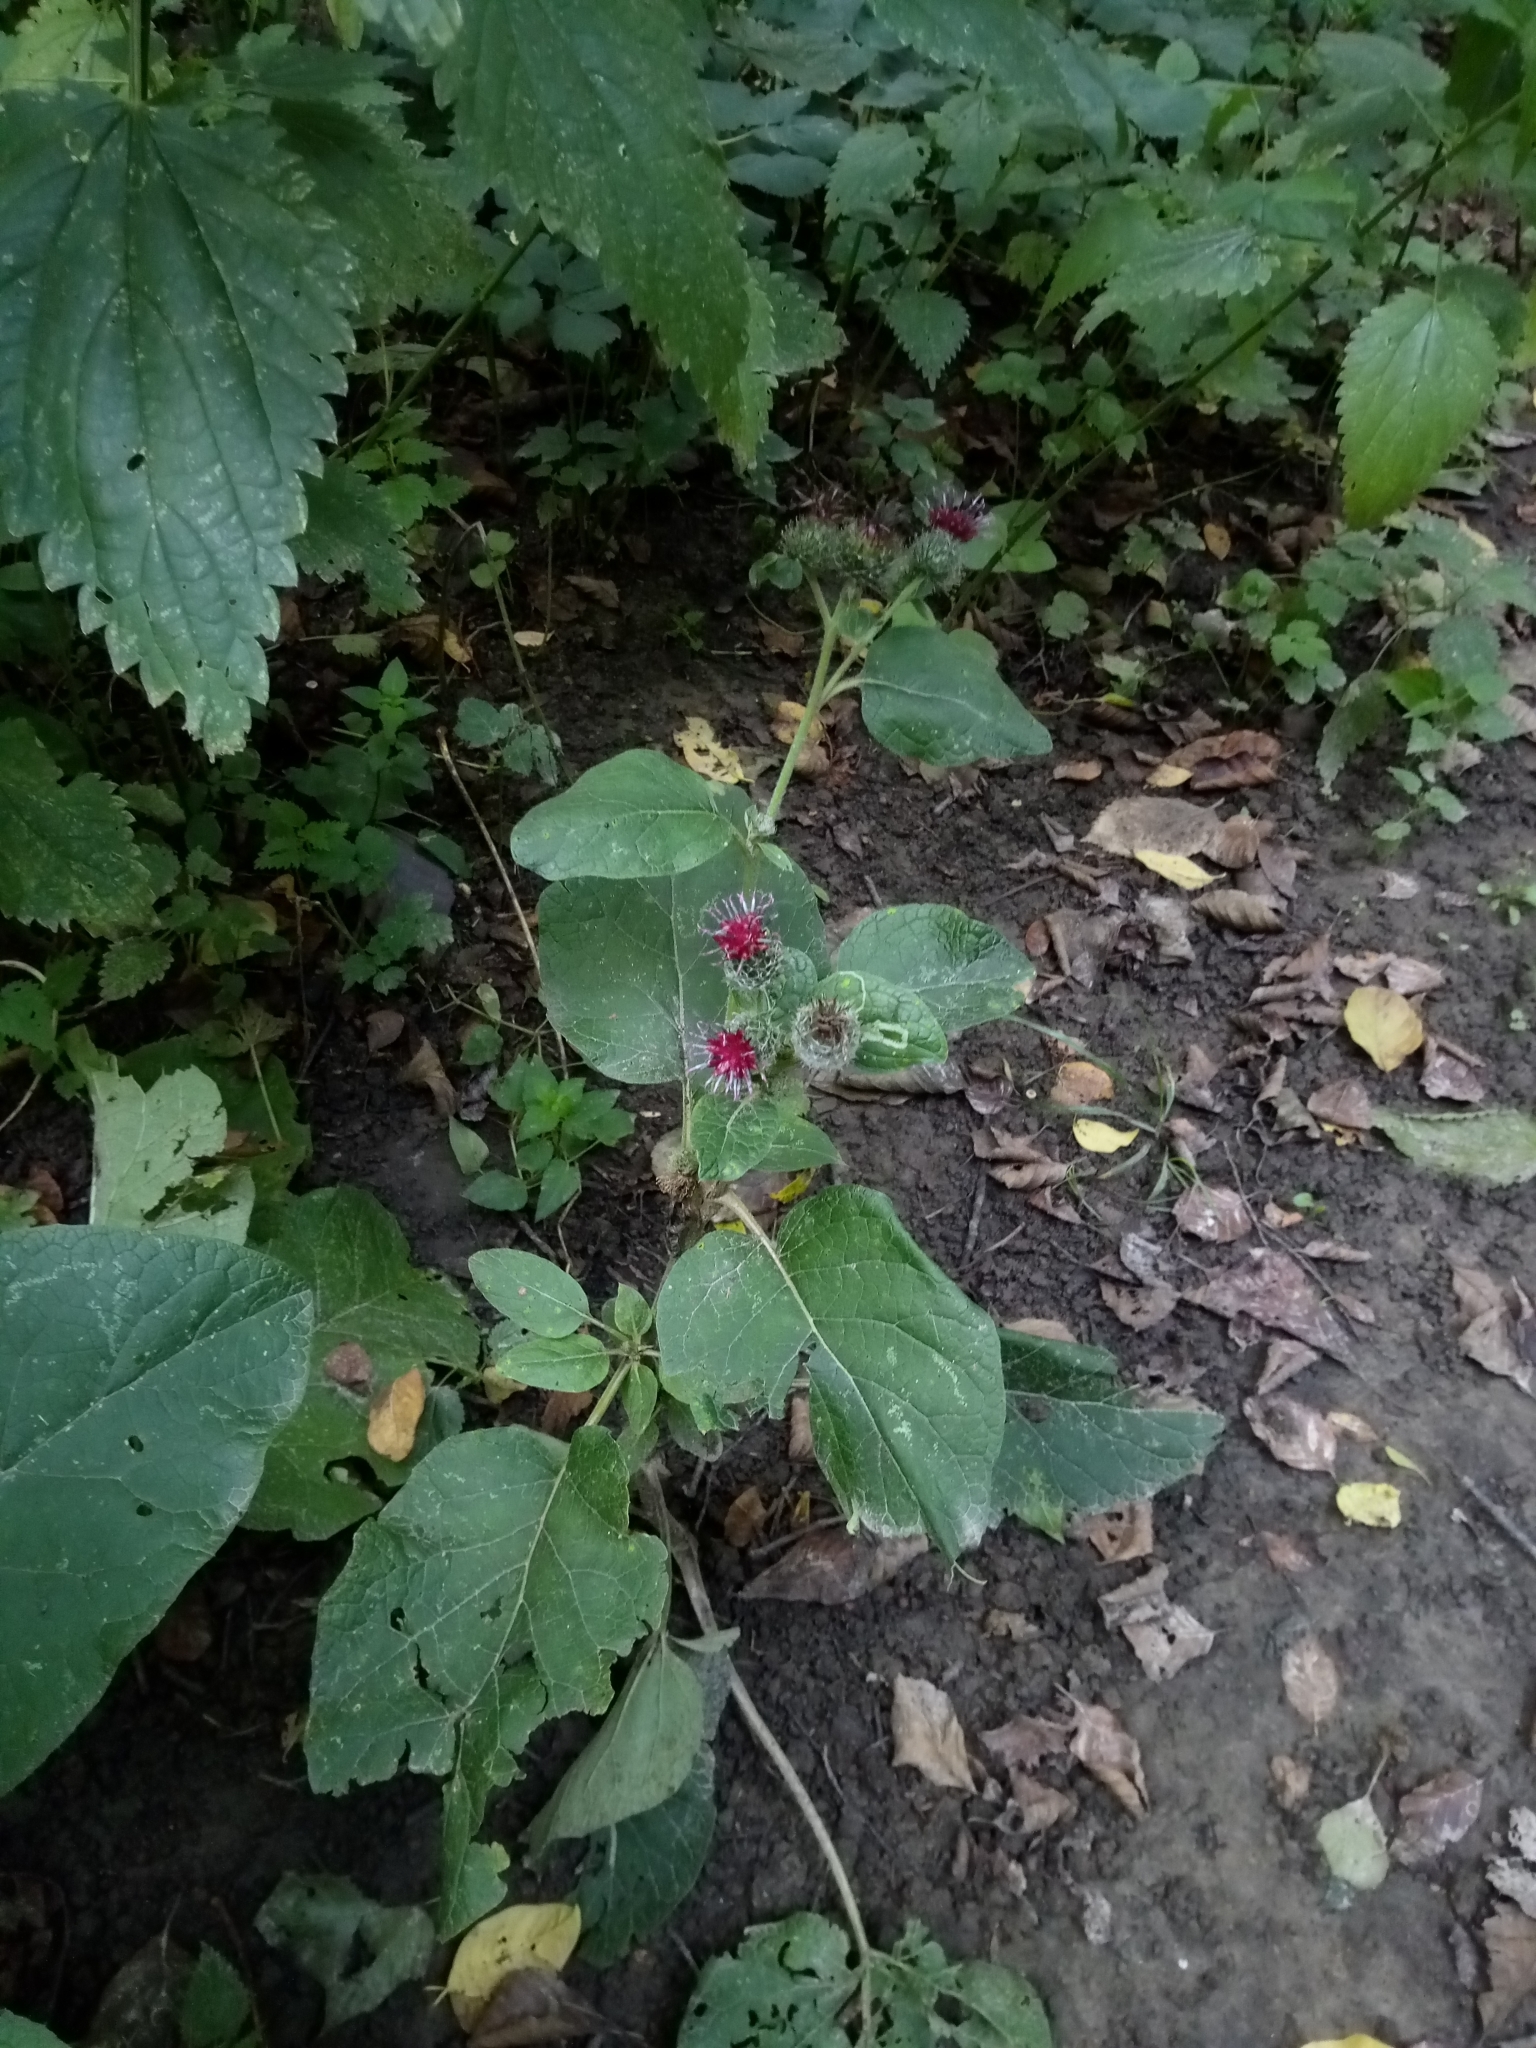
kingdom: Plantae
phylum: Tracheophyta
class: Magnoliopsida
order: Asterales
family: Asteraceae
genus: Arctium
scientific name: Arctium tomentosum
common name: Woolly burdock
